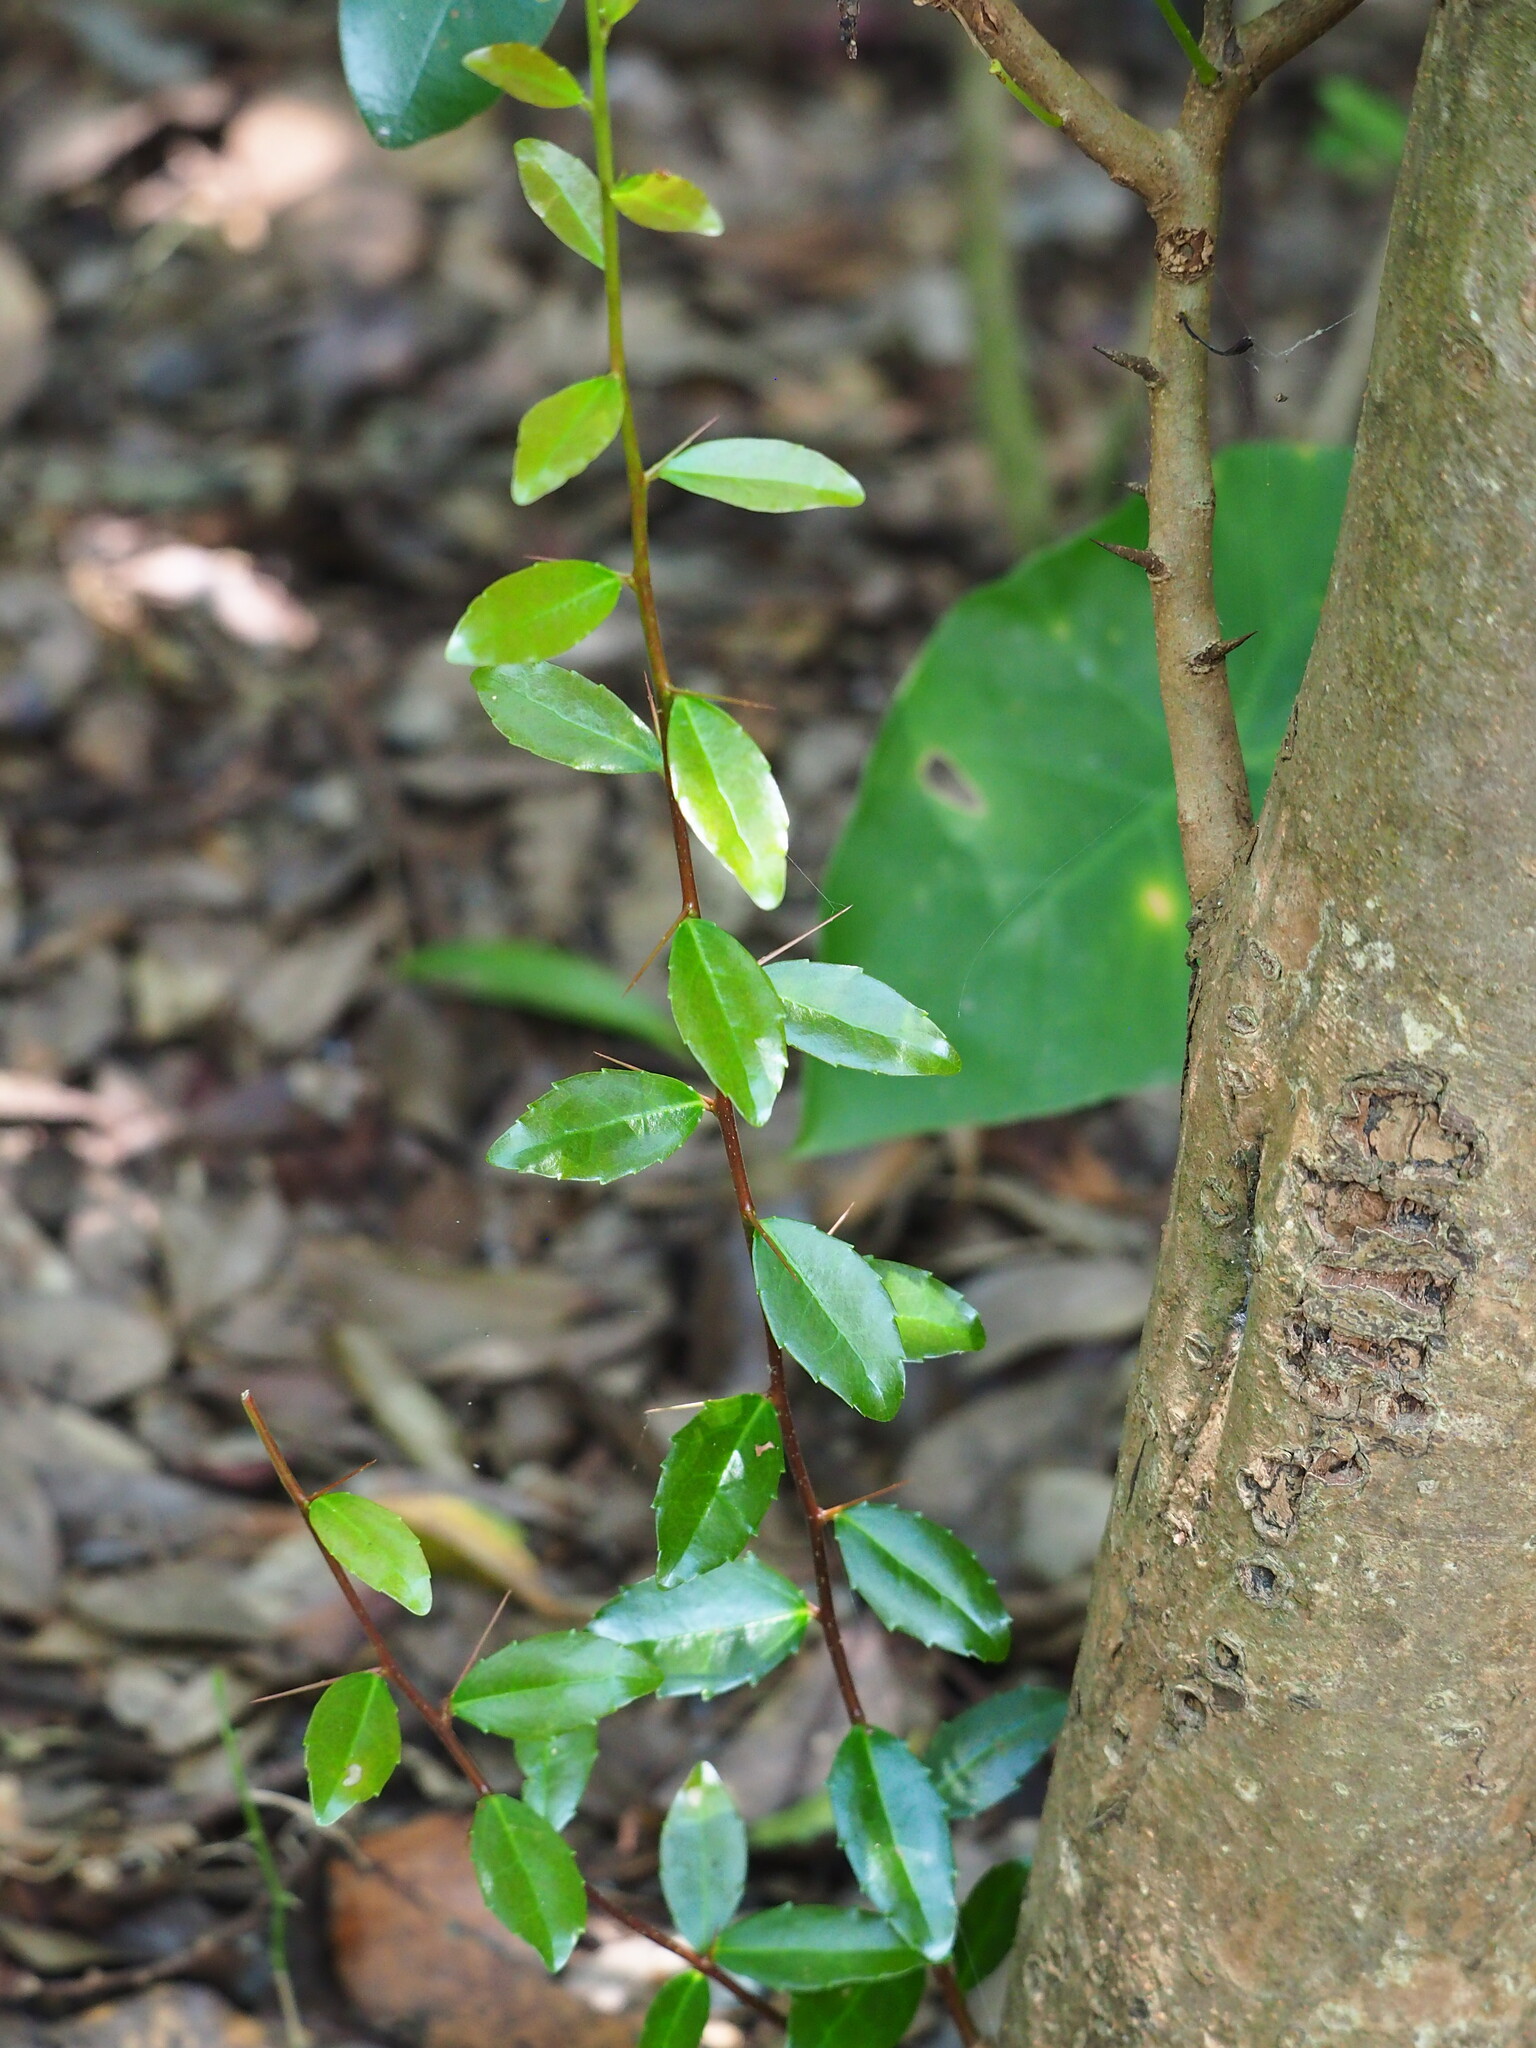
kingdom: Plantae
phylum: Tracheophyta
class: Magnoliopsida
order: Malpighiales
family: Salicaceae
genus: Scolopia
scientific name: Scolopia oldhamii
